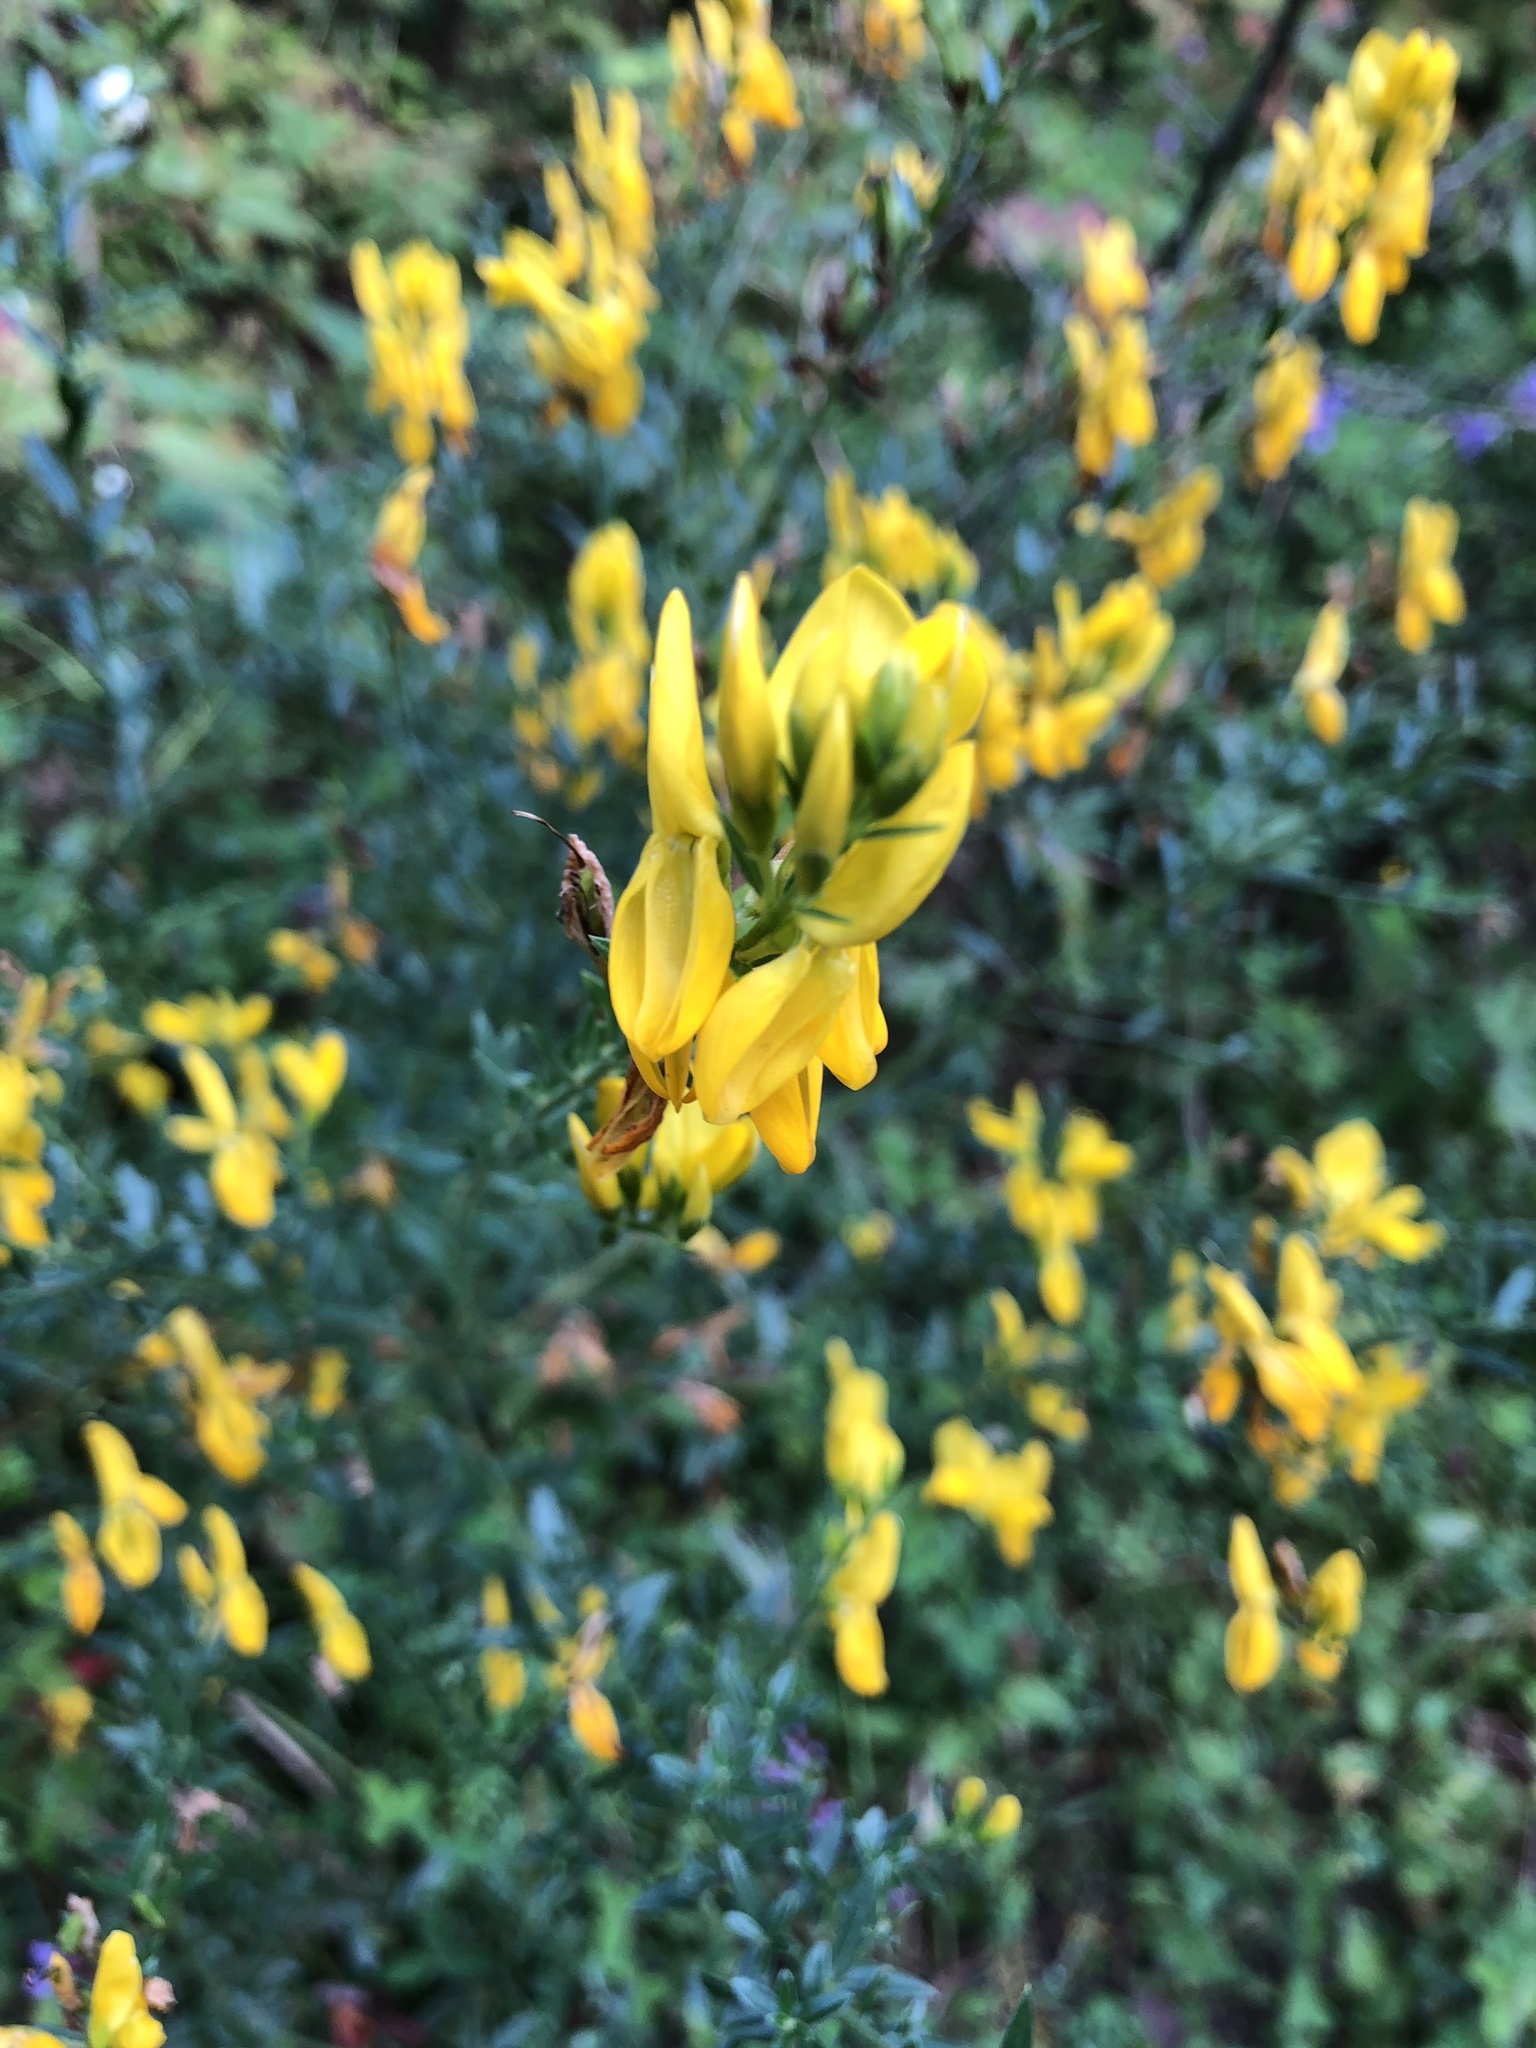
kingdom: Plantae
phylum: Tracheophyta
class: Magnoliopsida
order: Fabales
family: Fabaceae
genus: Genista
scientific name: Genista tinctoria
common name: Dyer's greenweed
